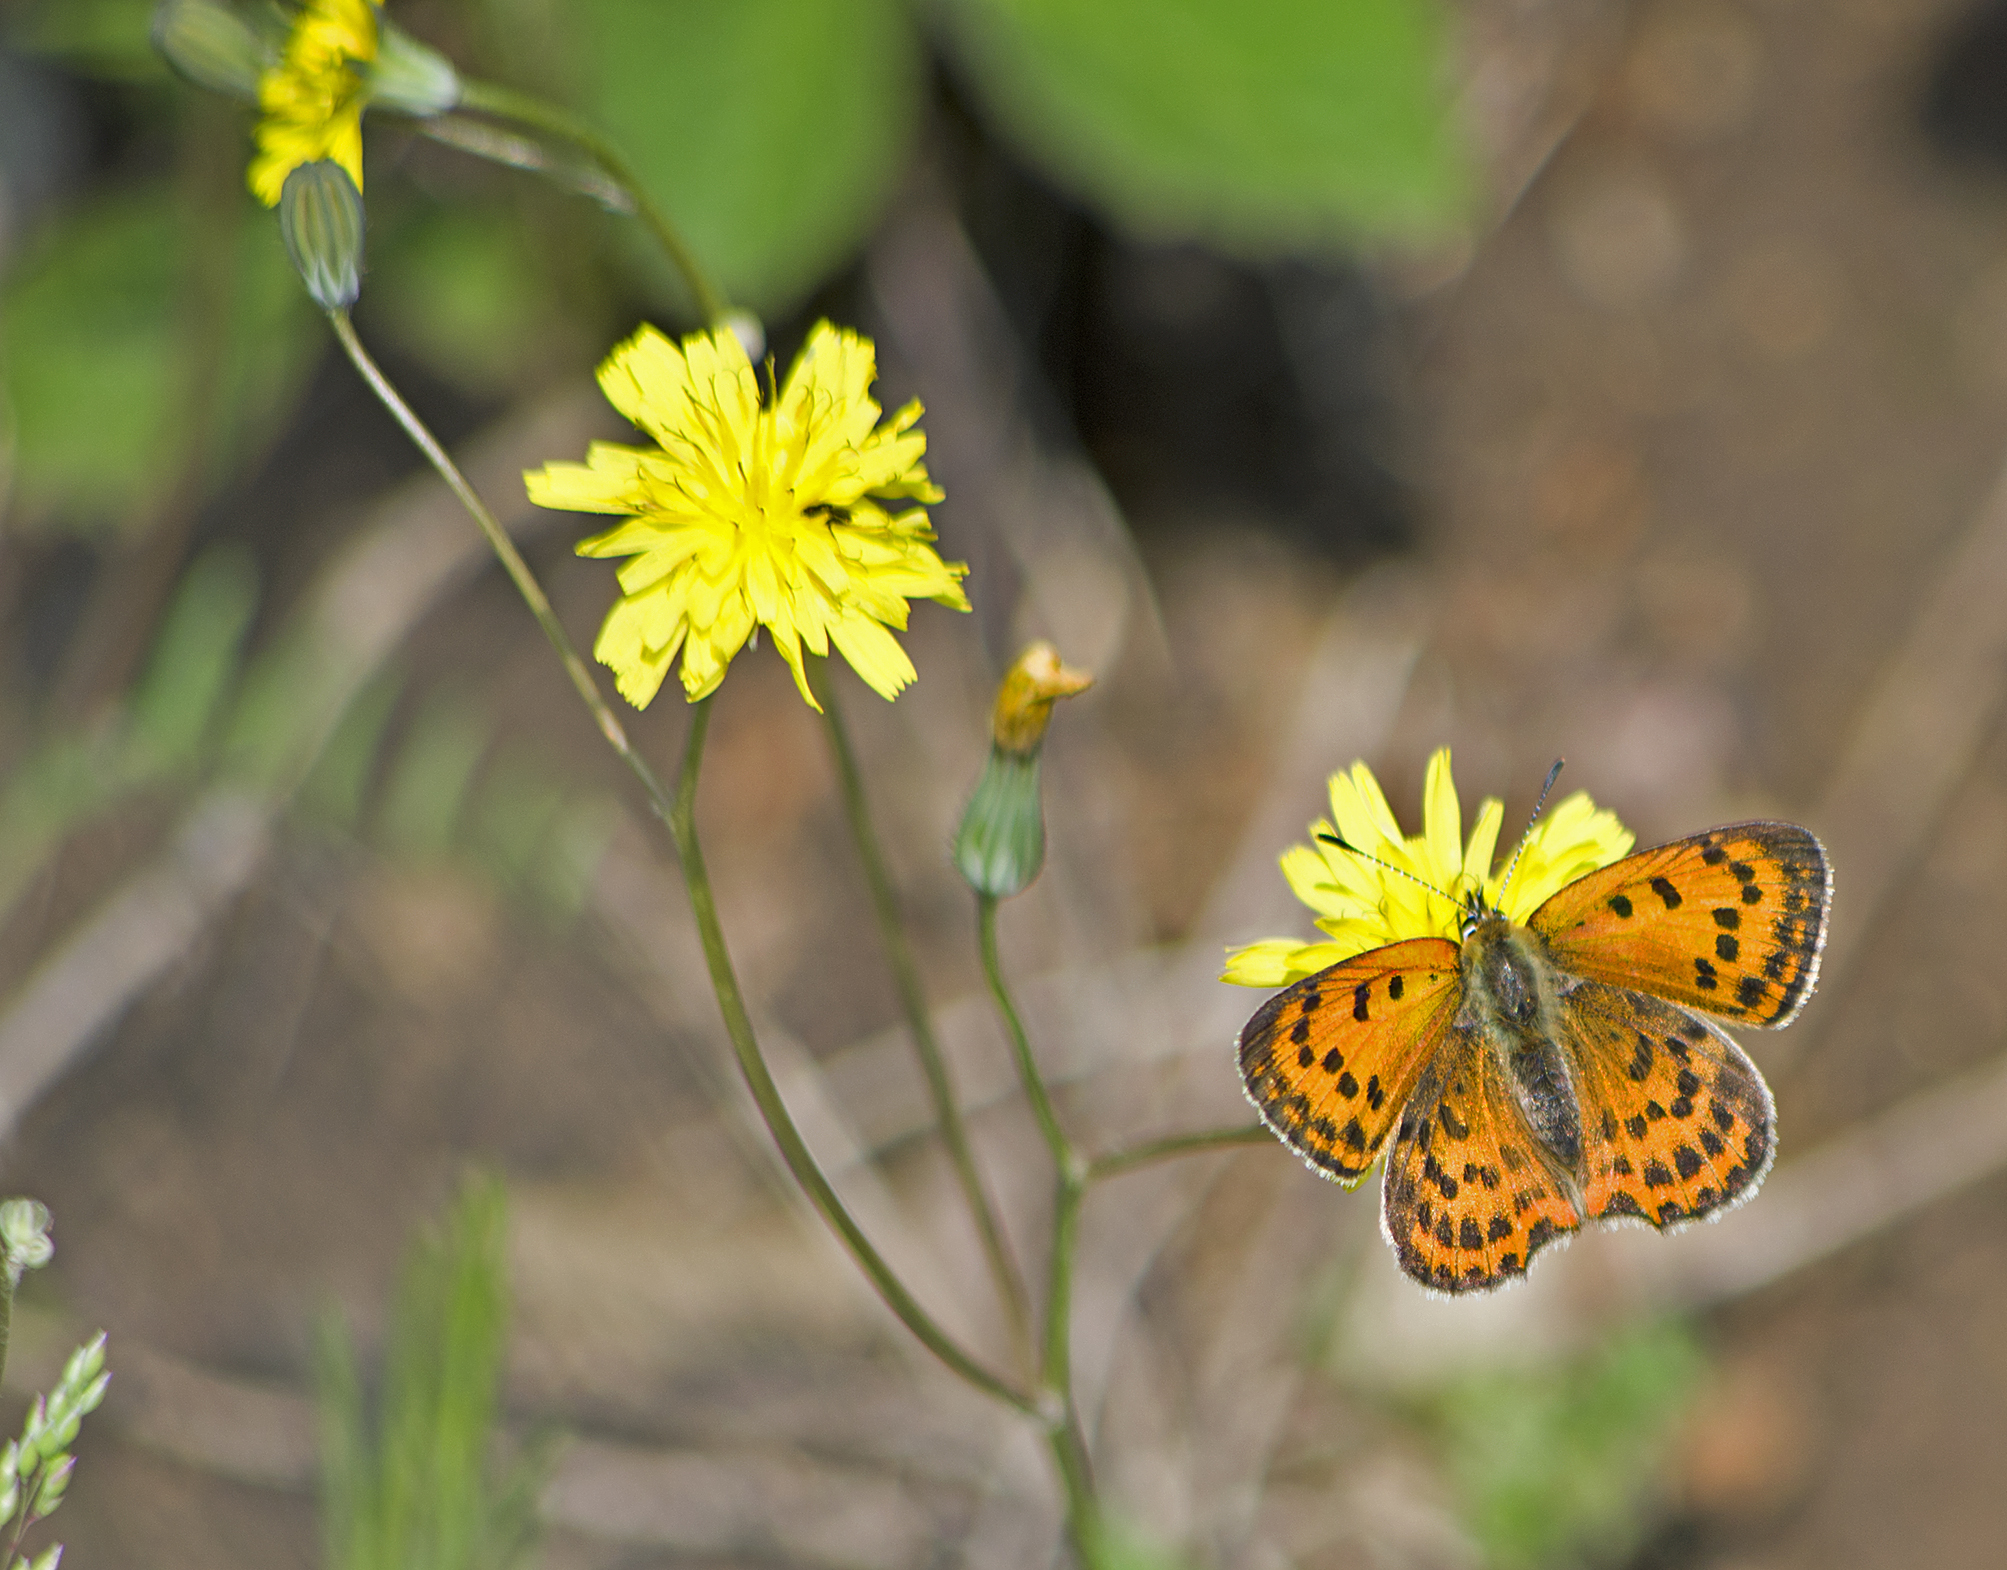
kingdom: Animalia
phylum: Arthropoda
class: Insecta
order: Lepidoptera
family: Lycaenidae
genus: Polyommatus
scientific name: Polyommatus ottomanus
